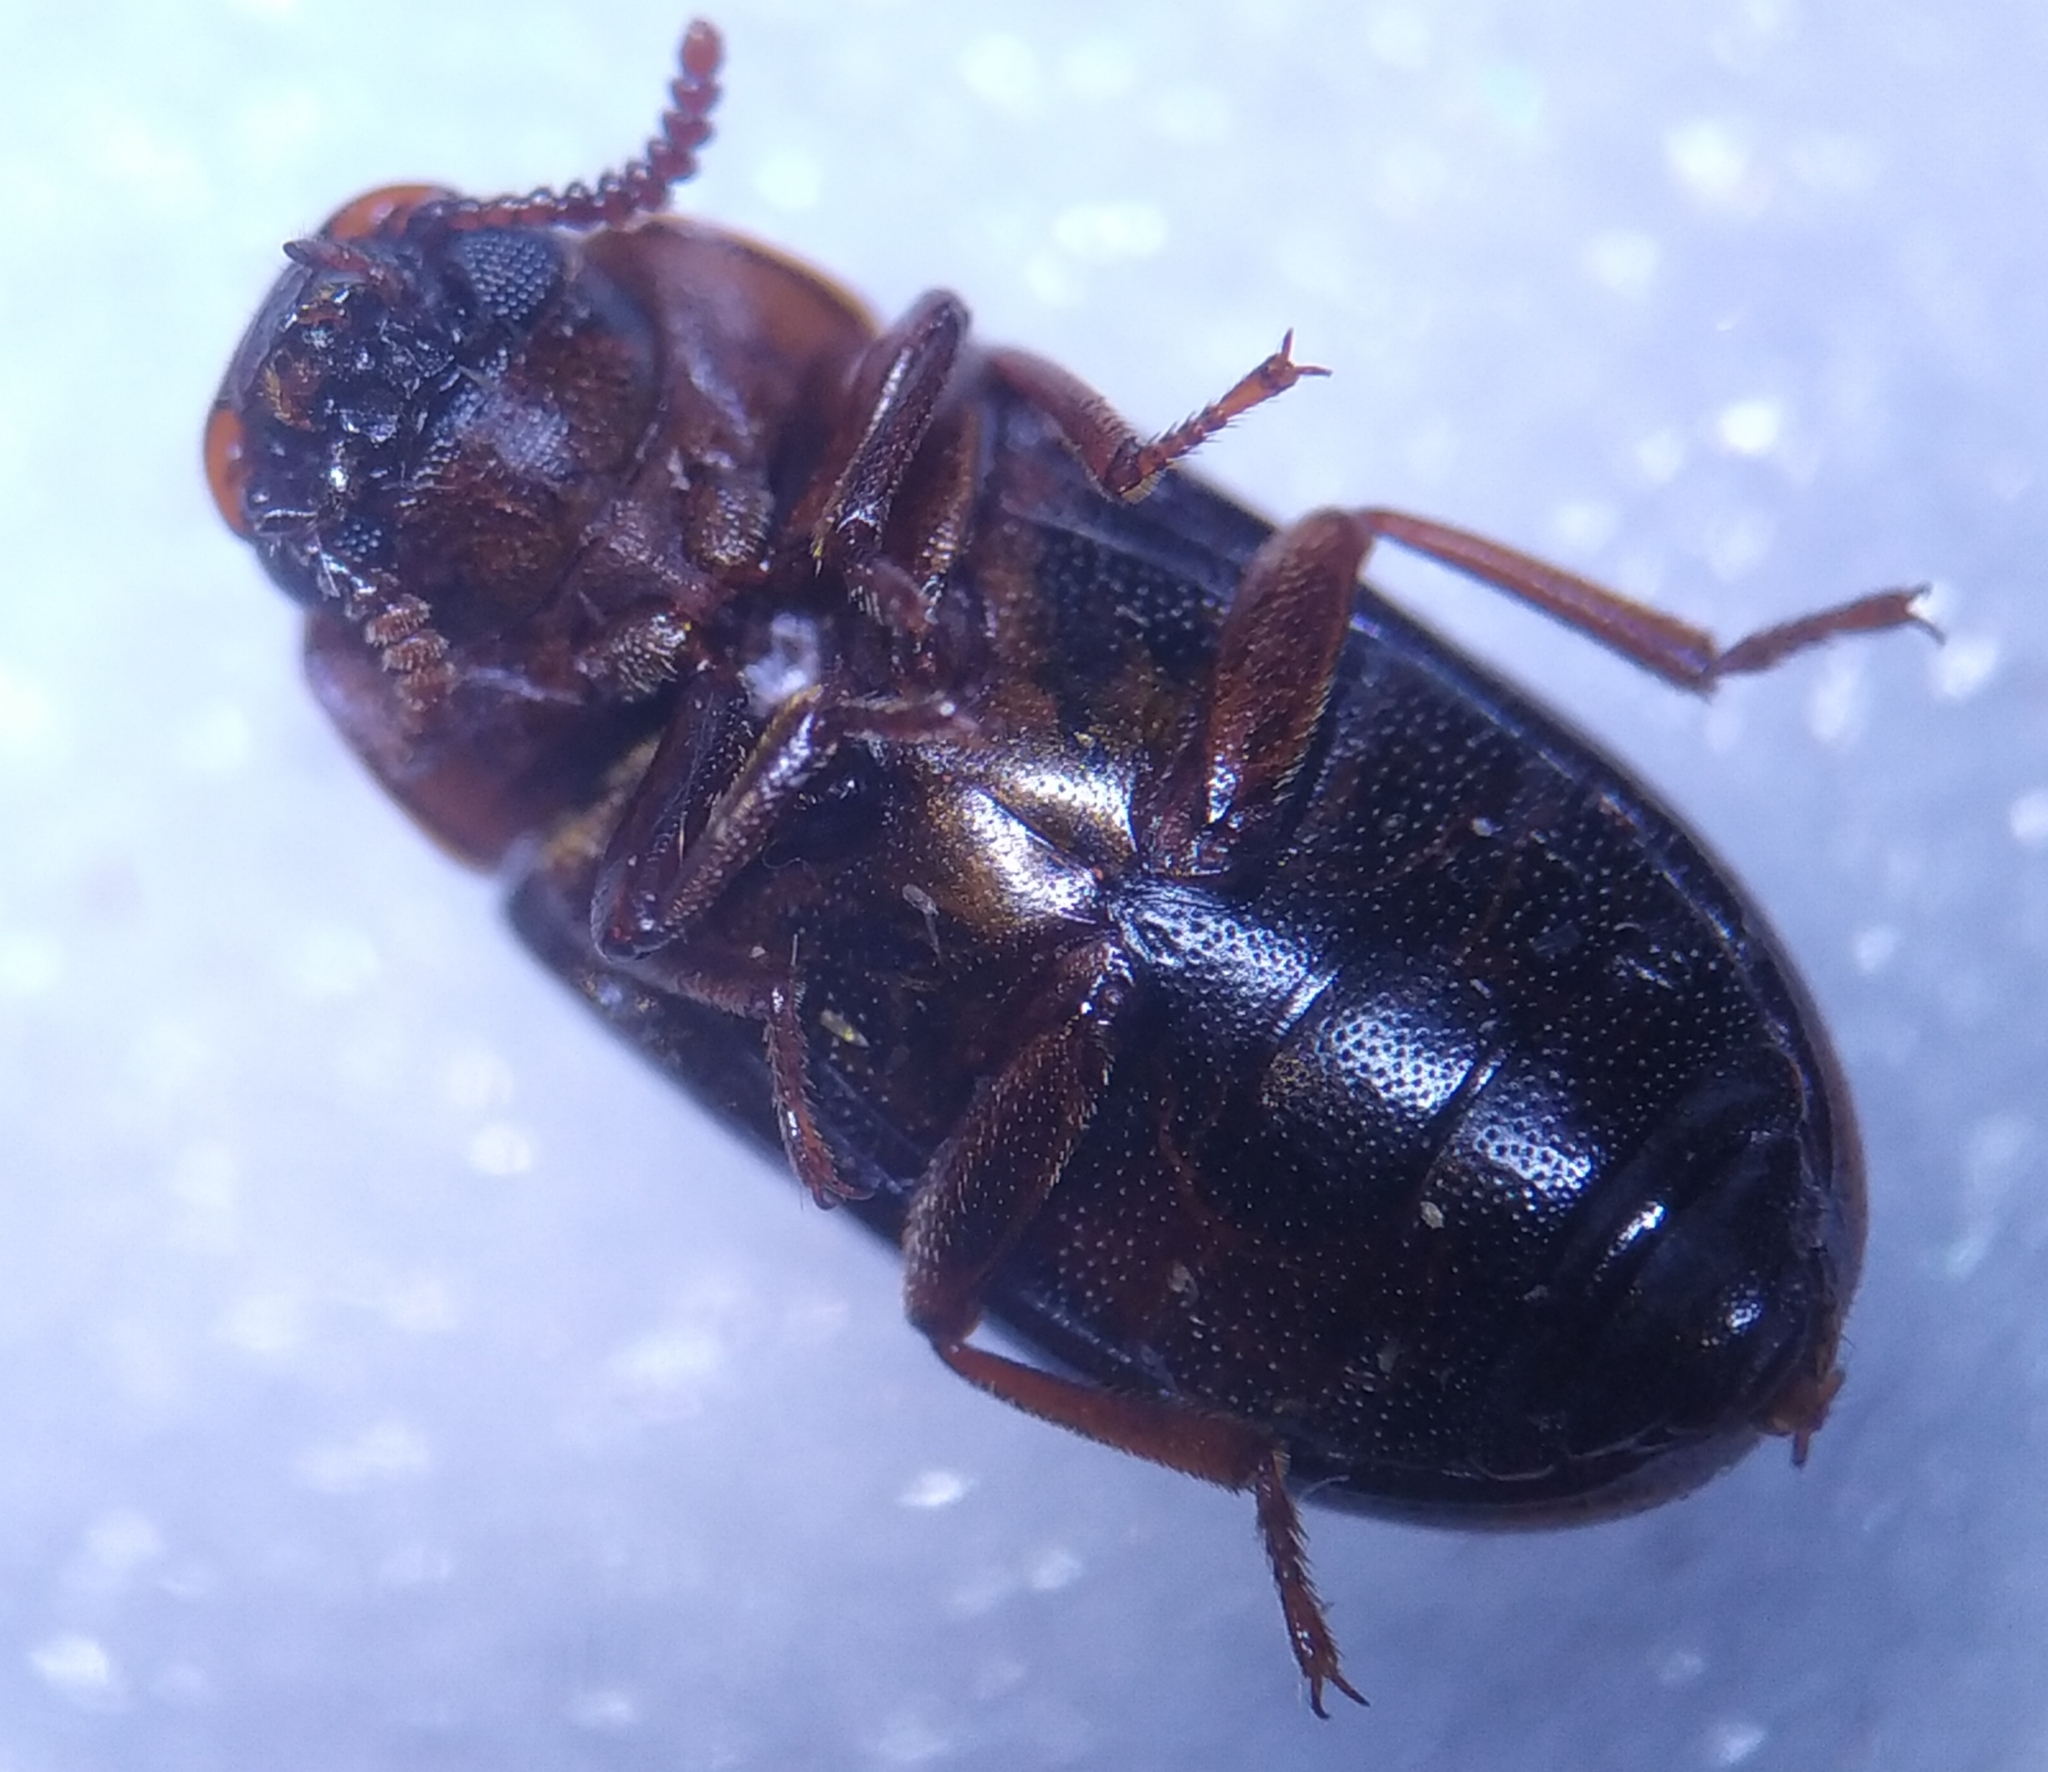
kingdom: Animalia
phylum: Arthropoda
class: Insecta
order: Coleoptera
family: Tenebrionidae
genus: Neomida
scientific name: Neomida haemorrhoidalis
